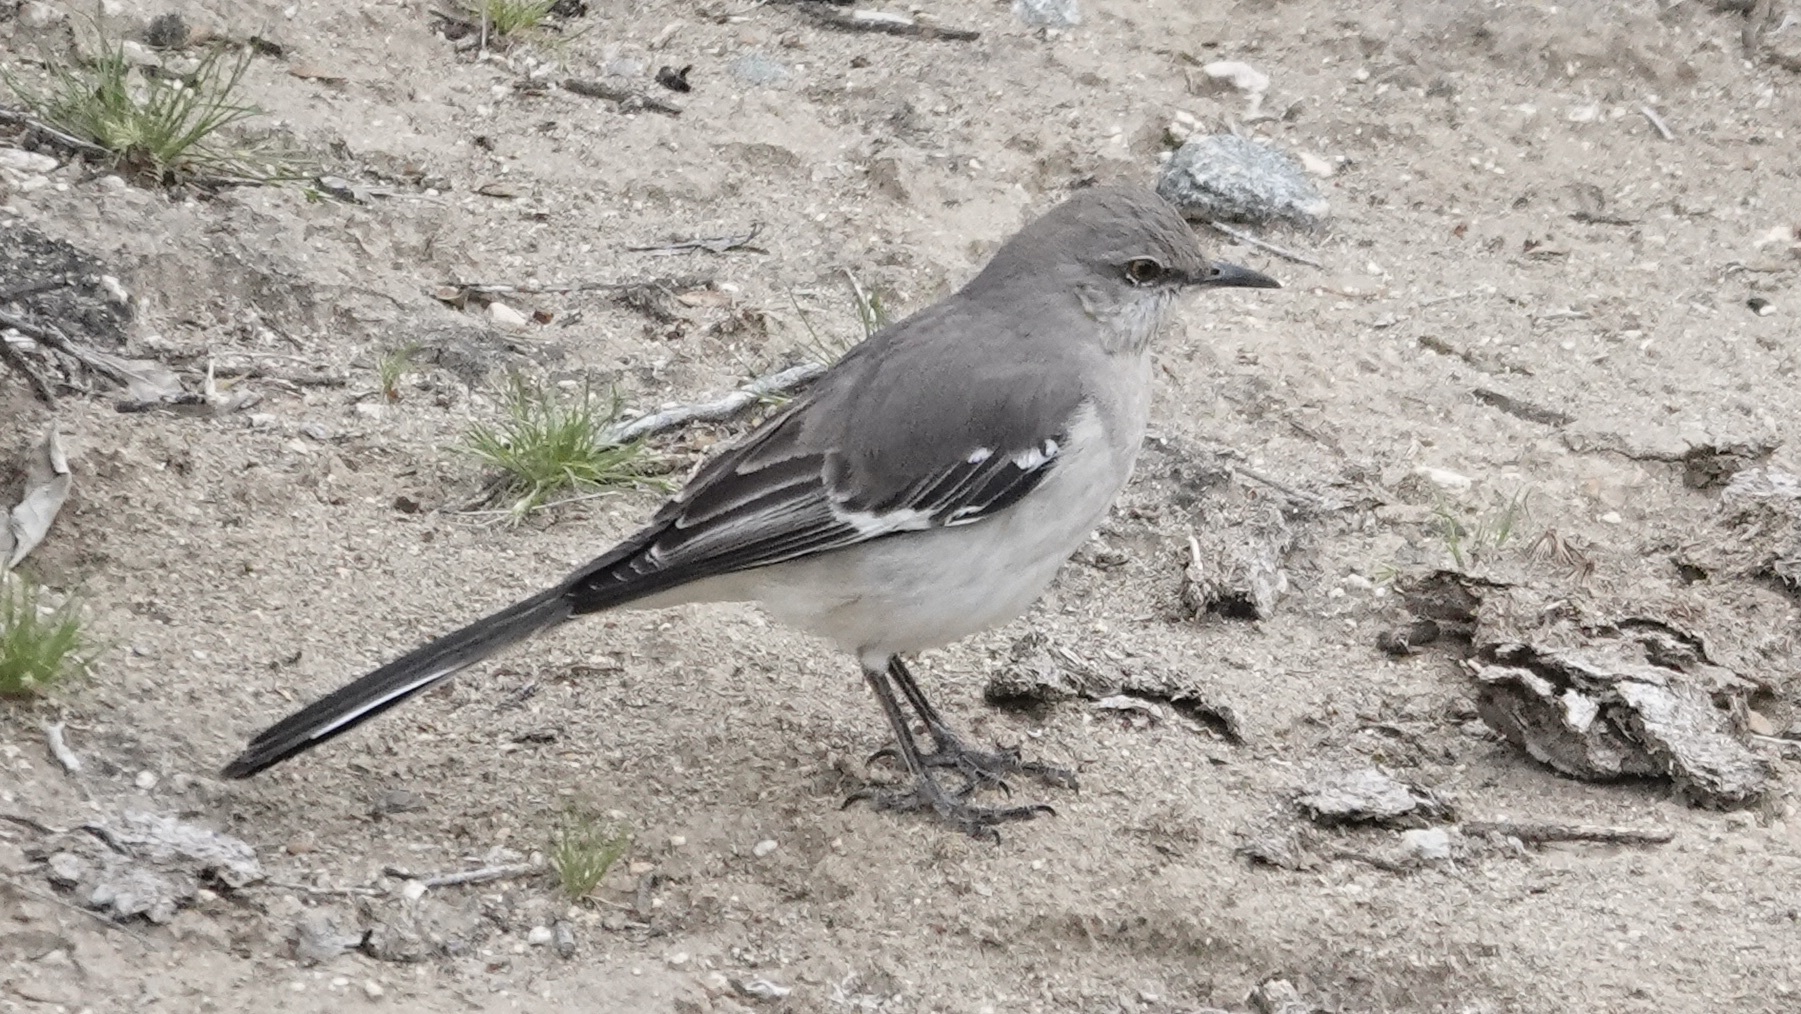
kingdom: Animalia
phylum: Chordata
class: Aves
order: Passeriformes
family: Mimidae
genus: Mimus
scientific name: Mimus polyglottos
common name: Northern mockingbird
